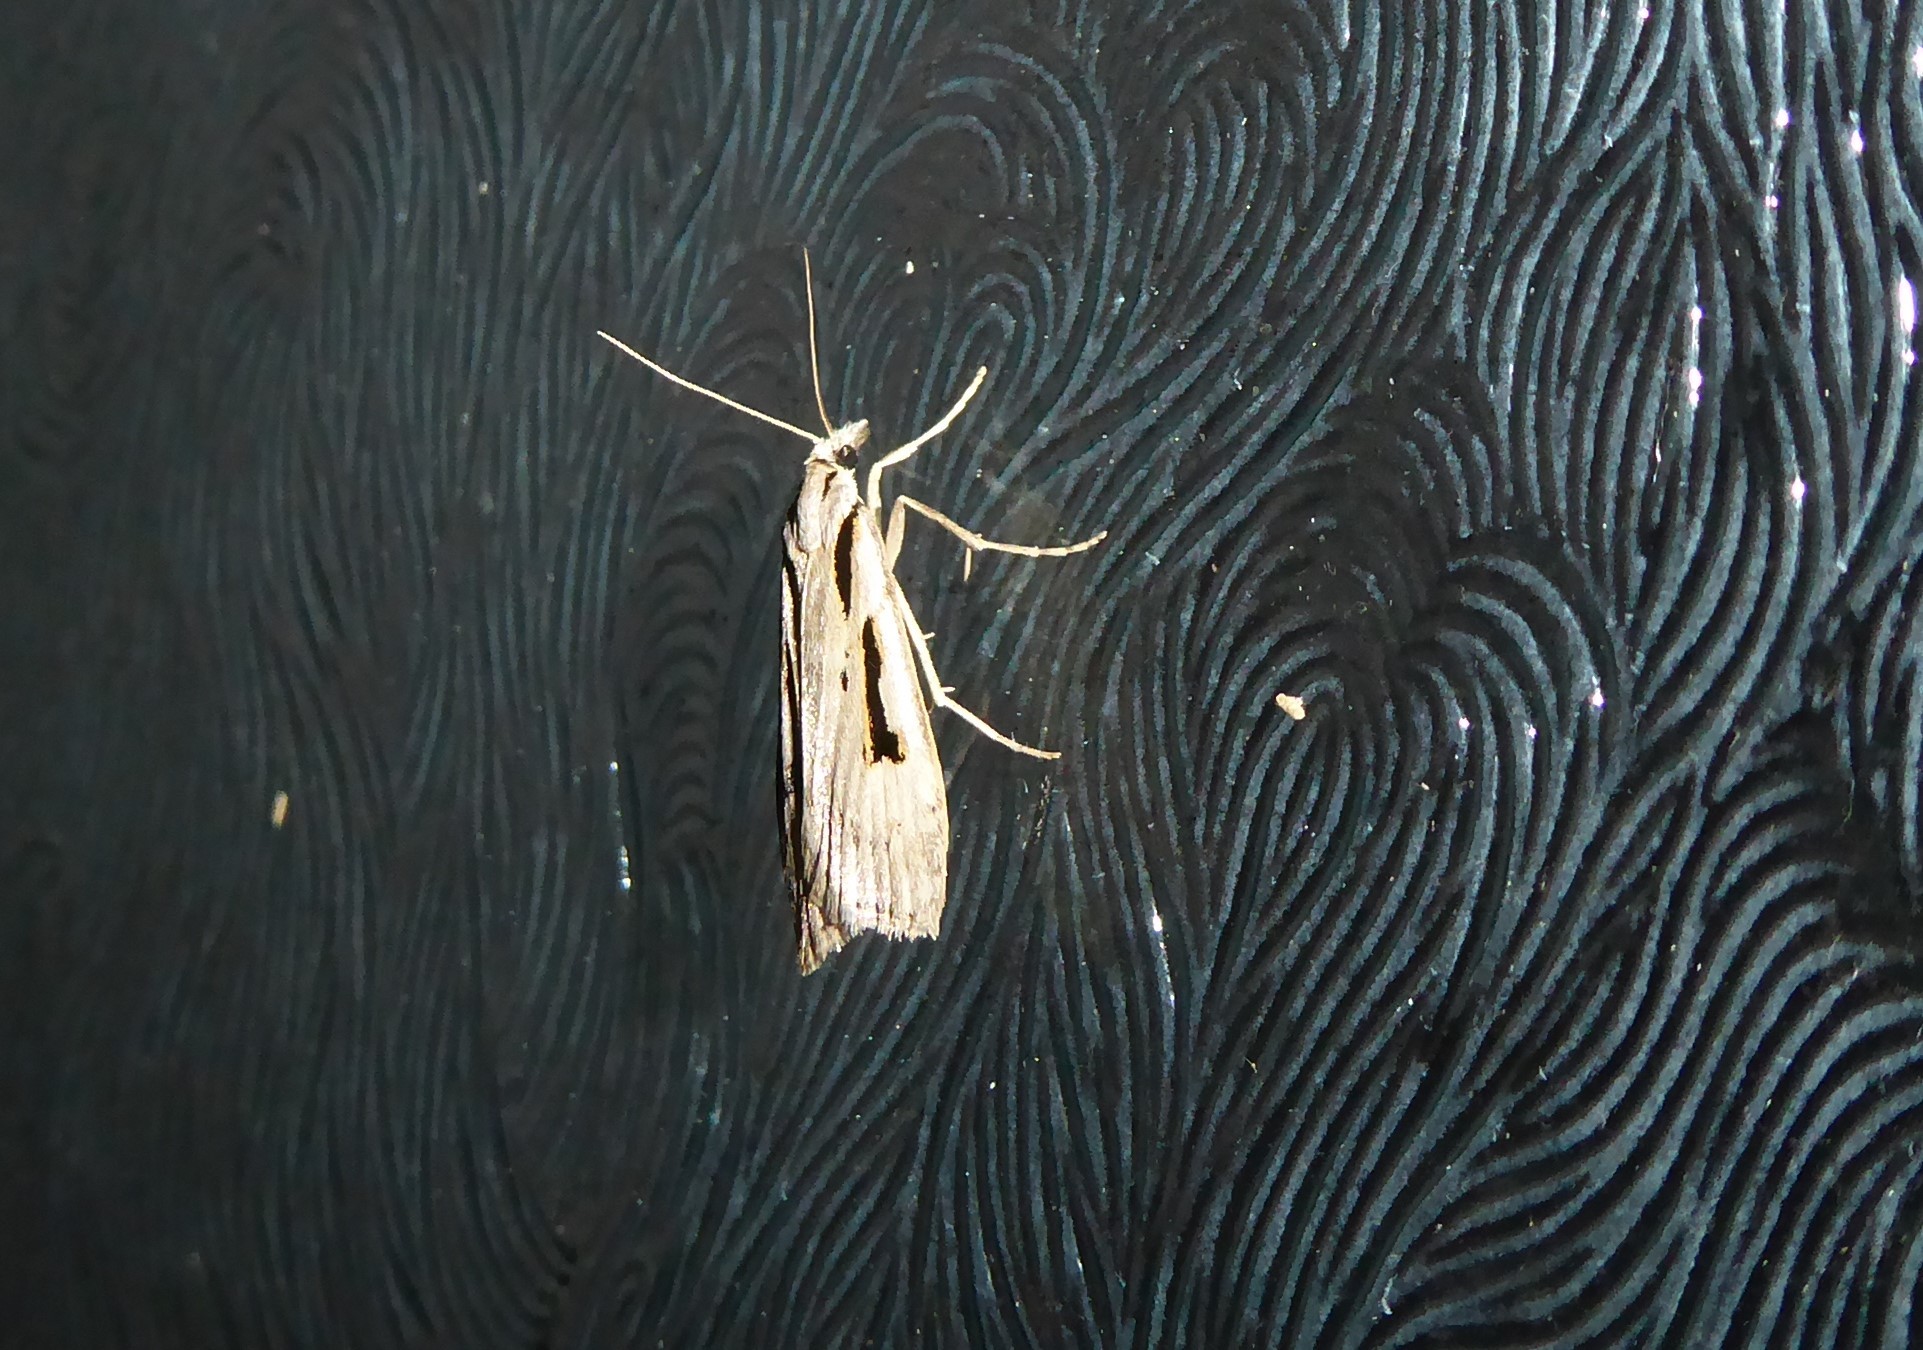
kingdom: Animalia
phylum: Arthropoda
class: Insecta
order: Lepidoptera
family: Crambidae
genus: Scoparia
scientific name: Scoparia rotuellus
